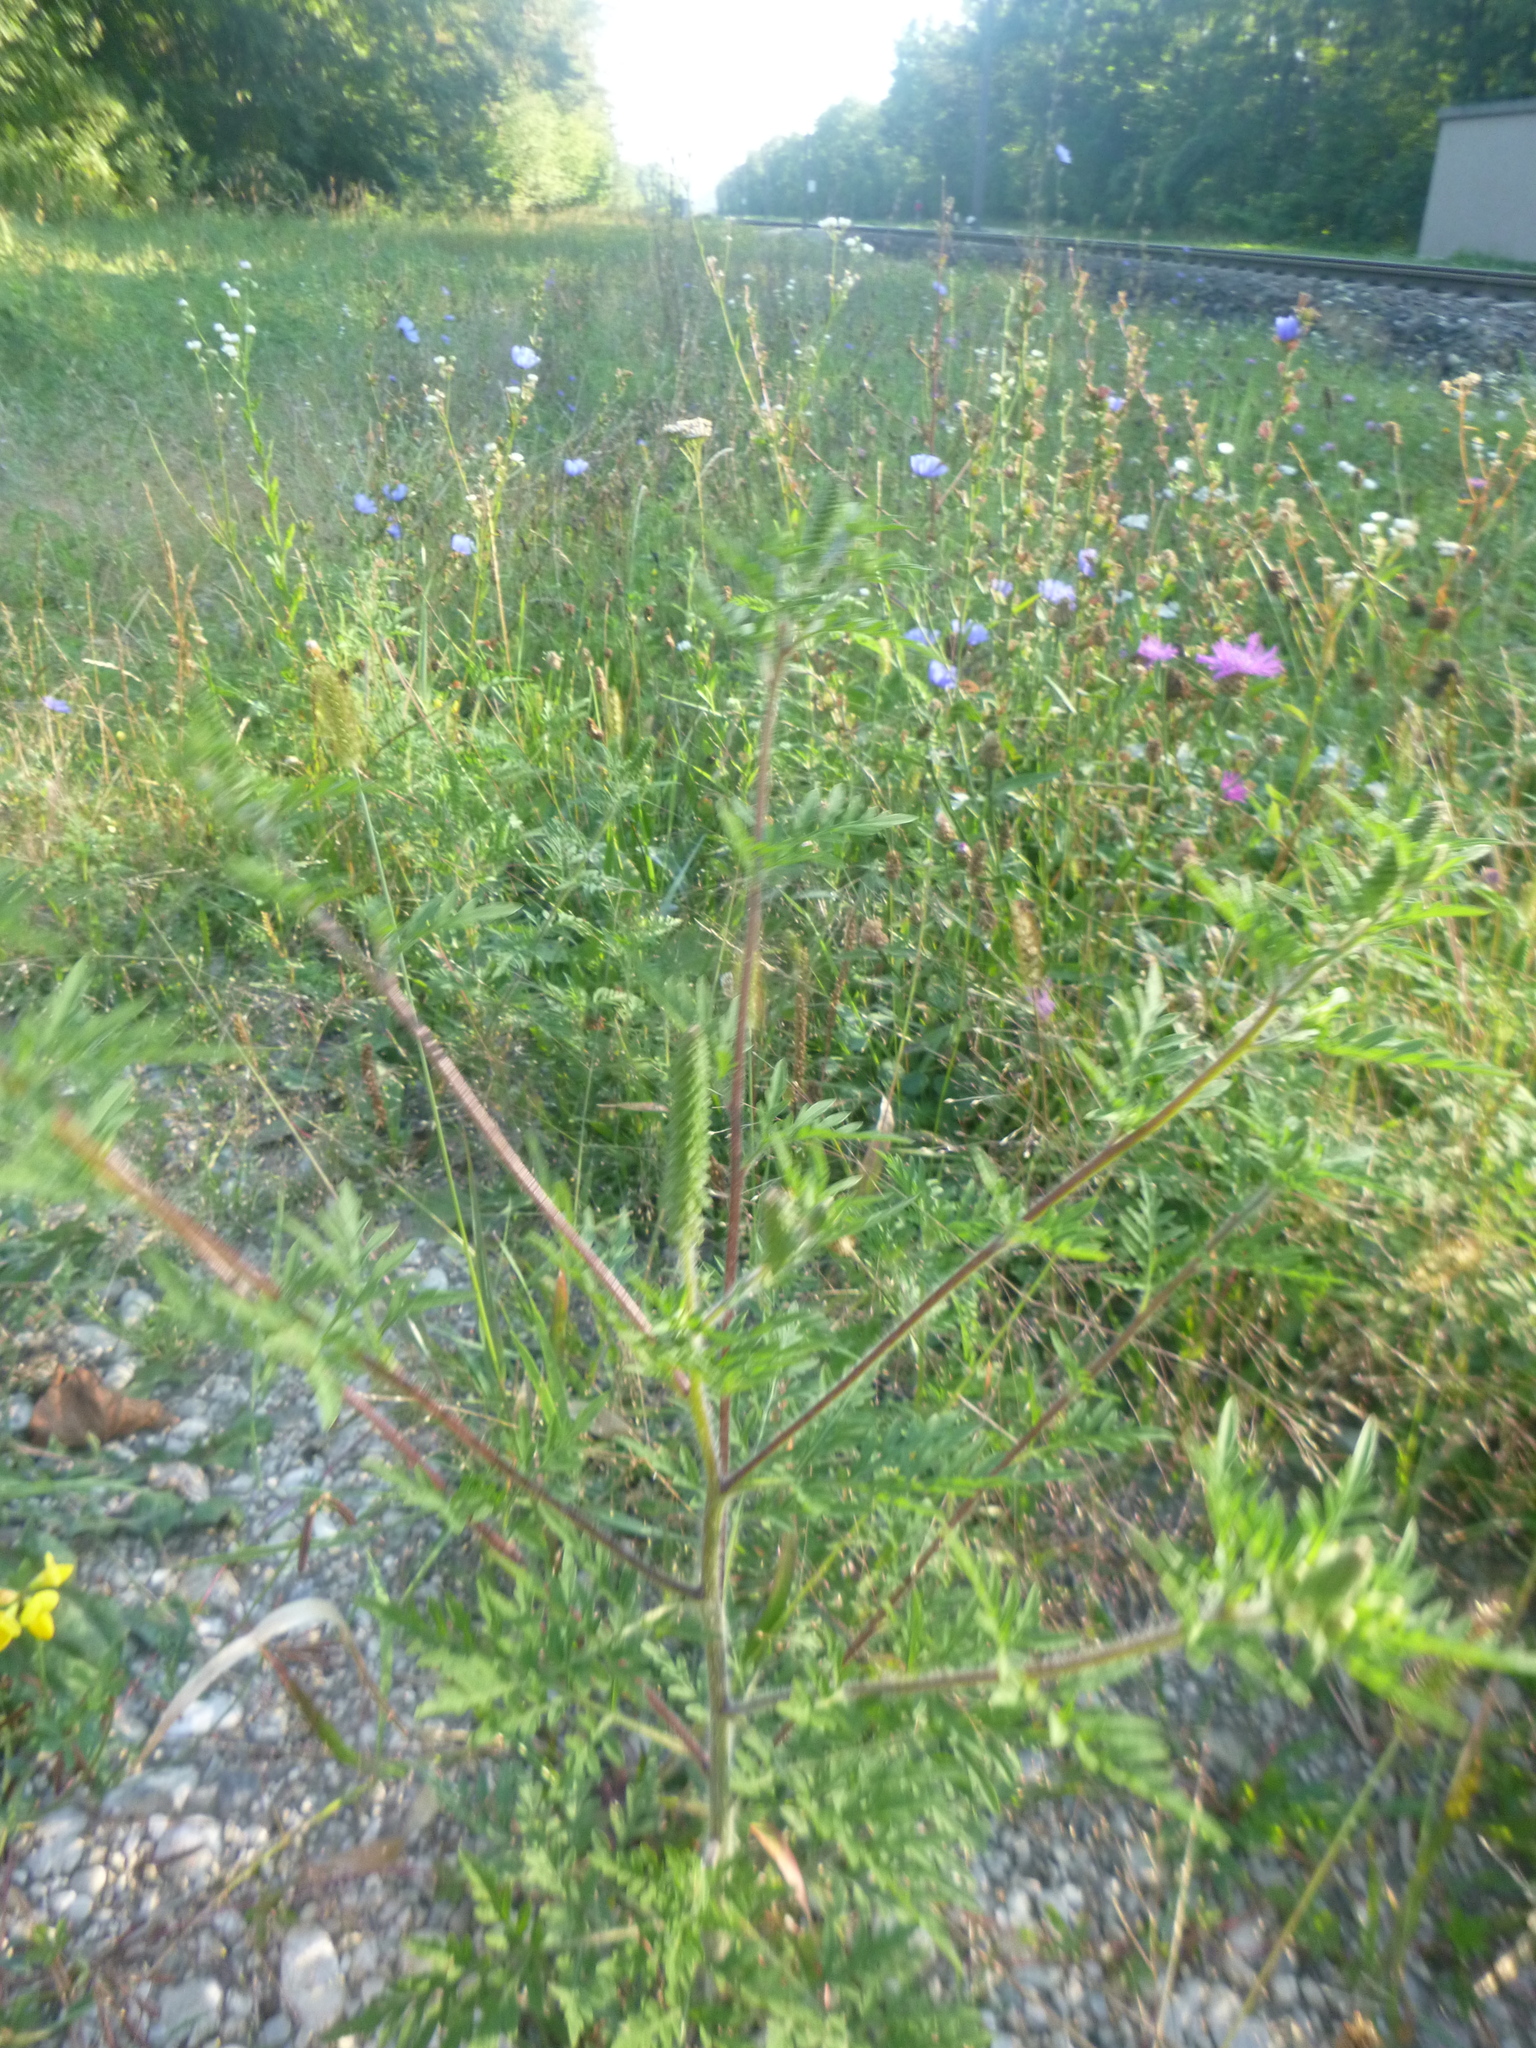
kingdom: Plantae
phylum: Tracheophyta
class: Magnoliopsida
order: Asterales
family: Asteraceae
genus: Ambrosia
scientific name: Ambrosia artemisiifolia
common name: Annual ragweed
